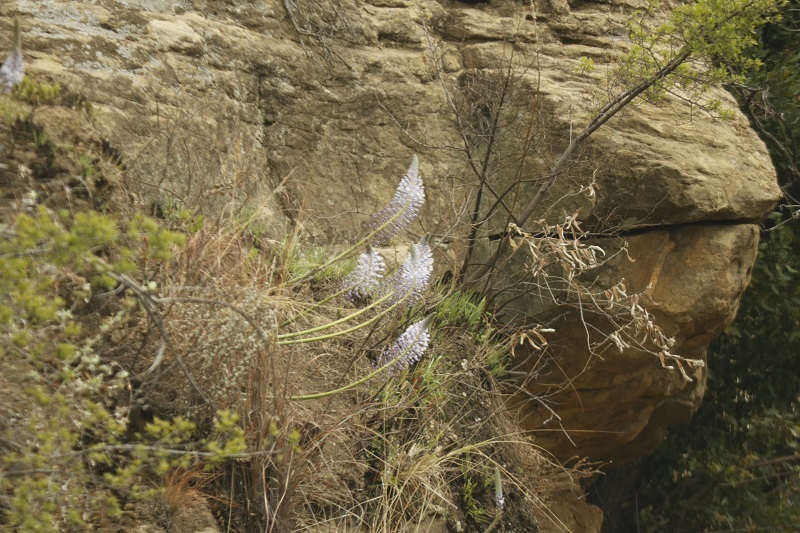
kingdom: Plantae
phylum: Tracheophyta
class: Liliopsida
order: Asparagales
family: Asparagaceae
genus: Merwilla
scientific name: Merwilla plumbea
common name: Blue-squill
